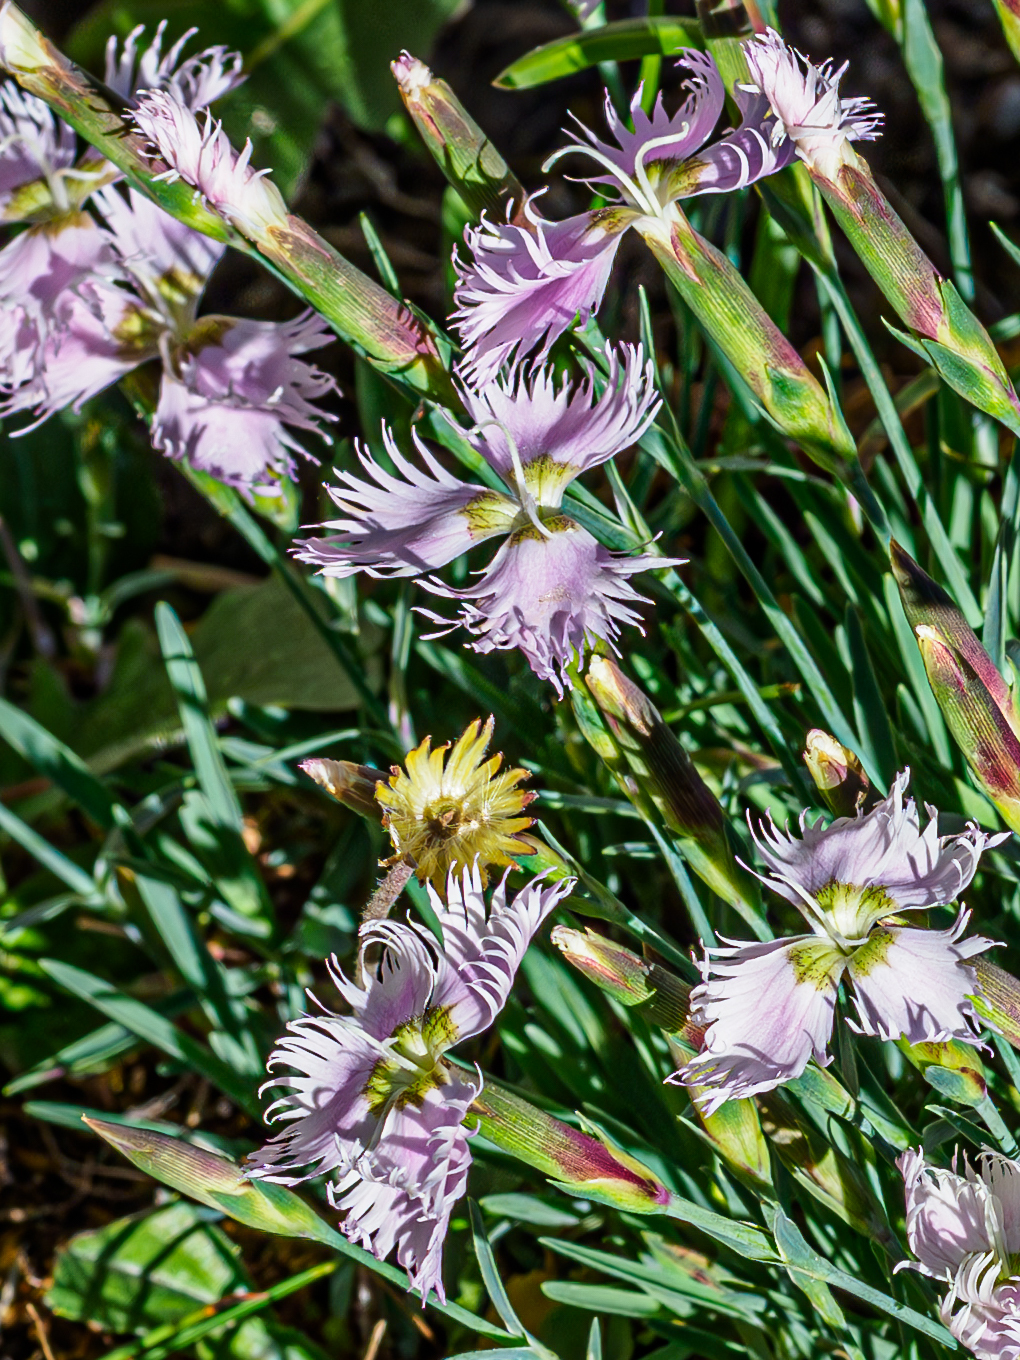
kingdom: Plantae
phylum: Tracheophyta
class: Magnoliopsida
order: Caryophyllales
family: Caryophyllaceae
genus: Dianthus
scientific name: Dianthus sternbergii
